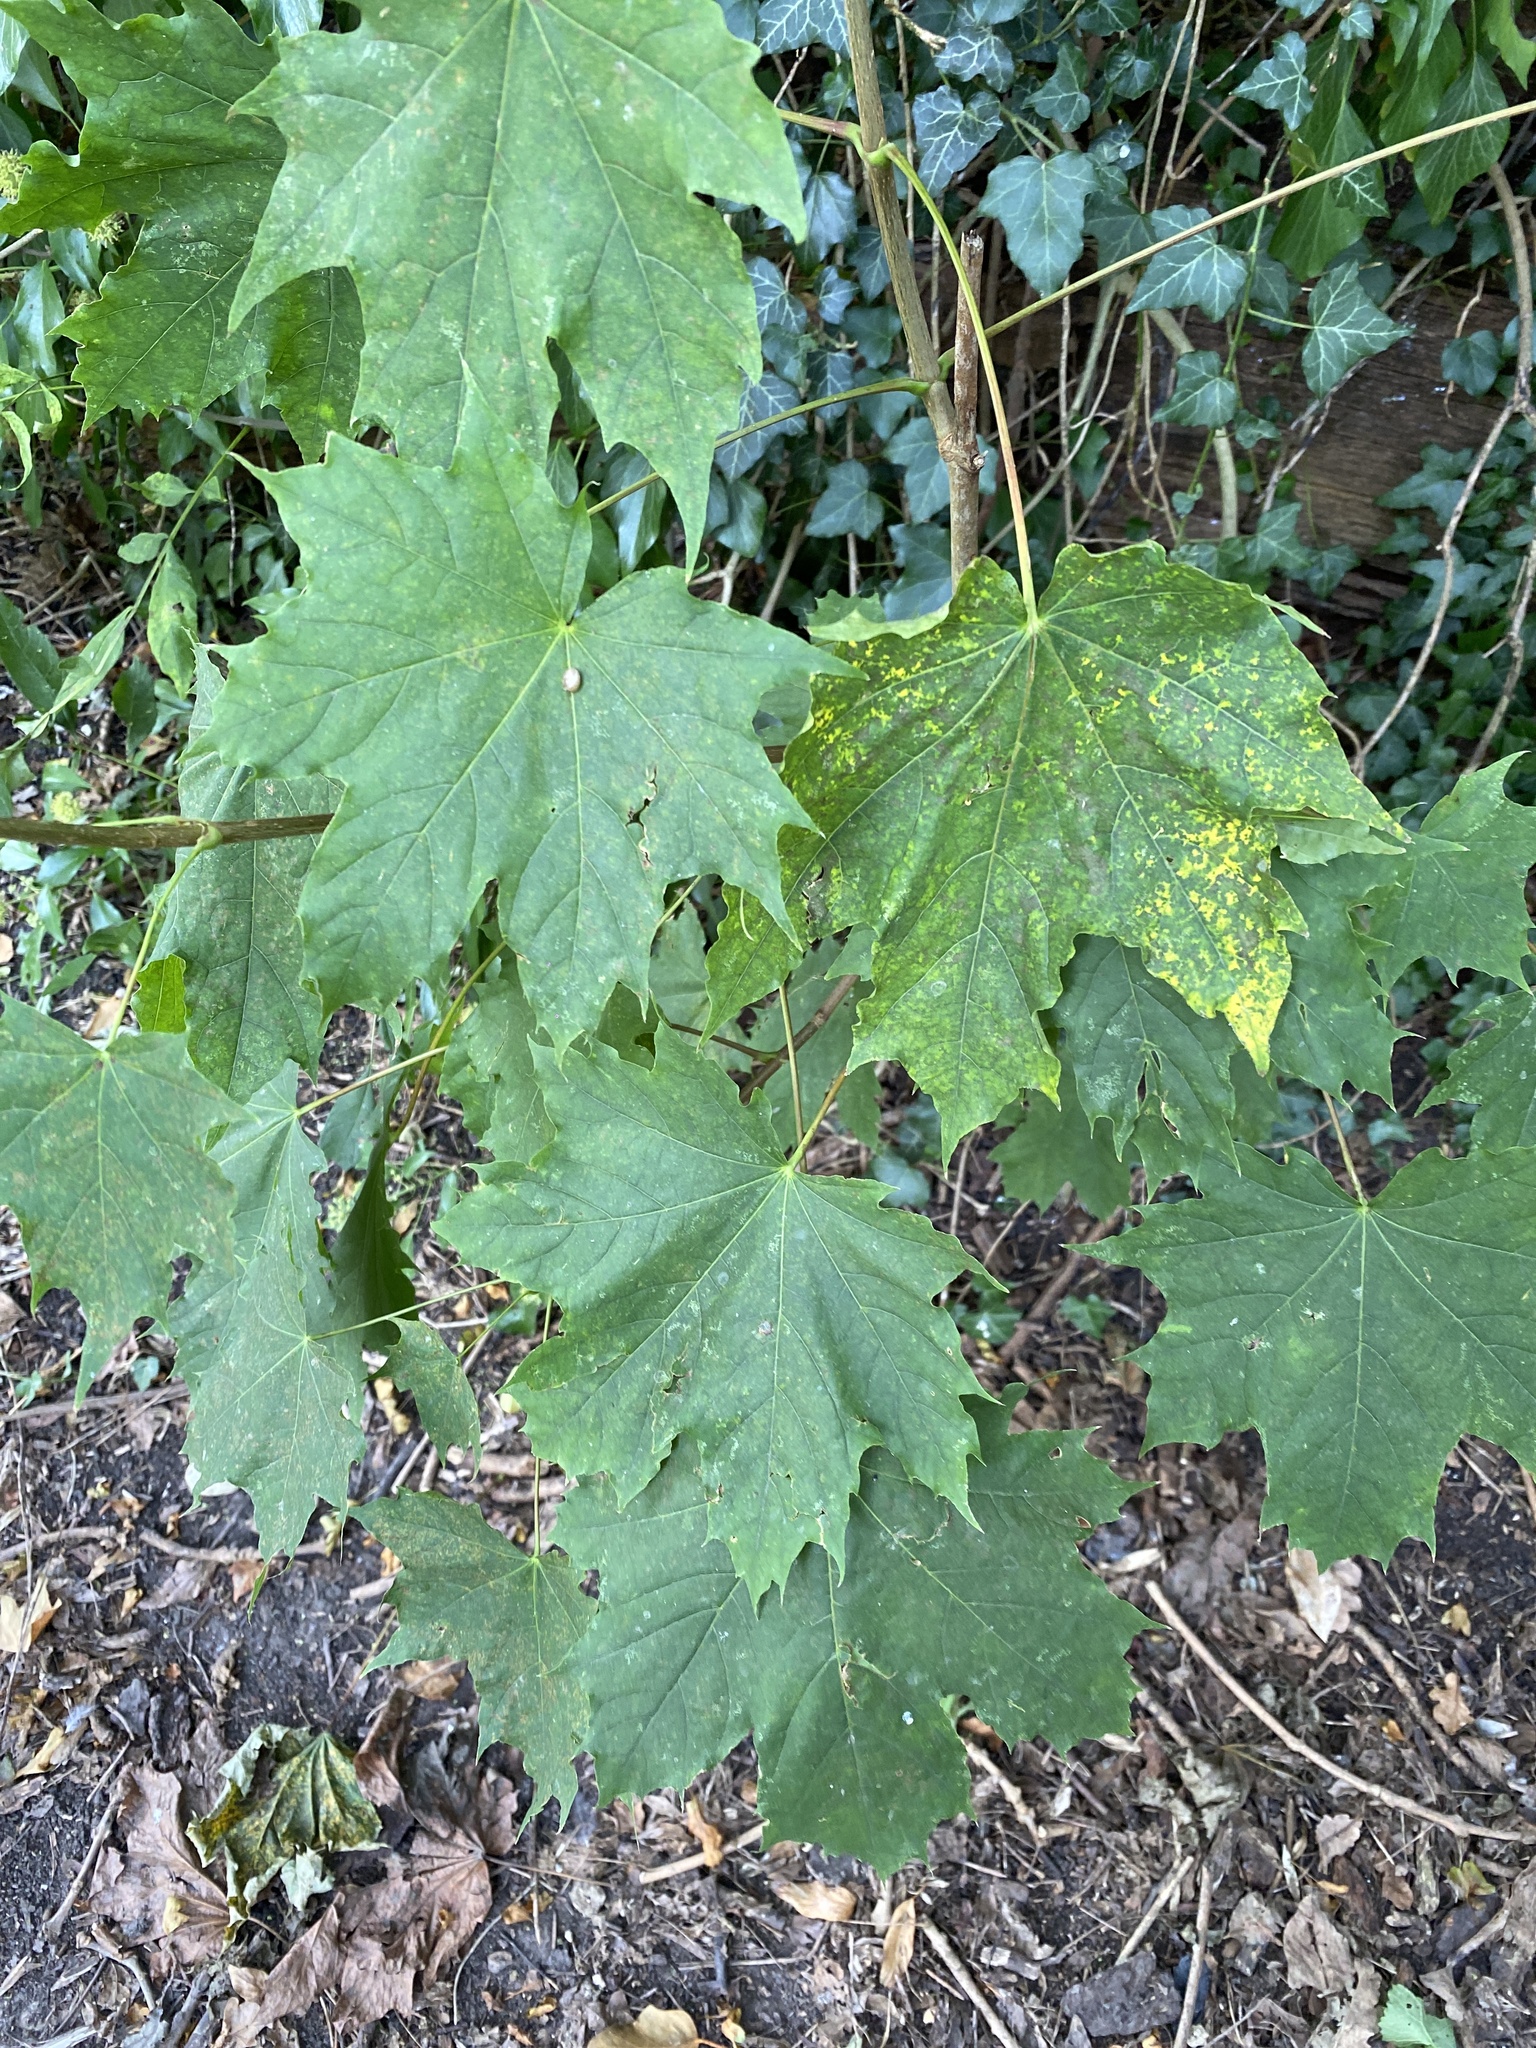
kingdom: Plantae
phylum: Tracheophyta
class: Magnoliopsida
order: Sapindales
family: Sapindaceae
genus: Acer
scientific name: Acer platanoides
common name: Norway maple
